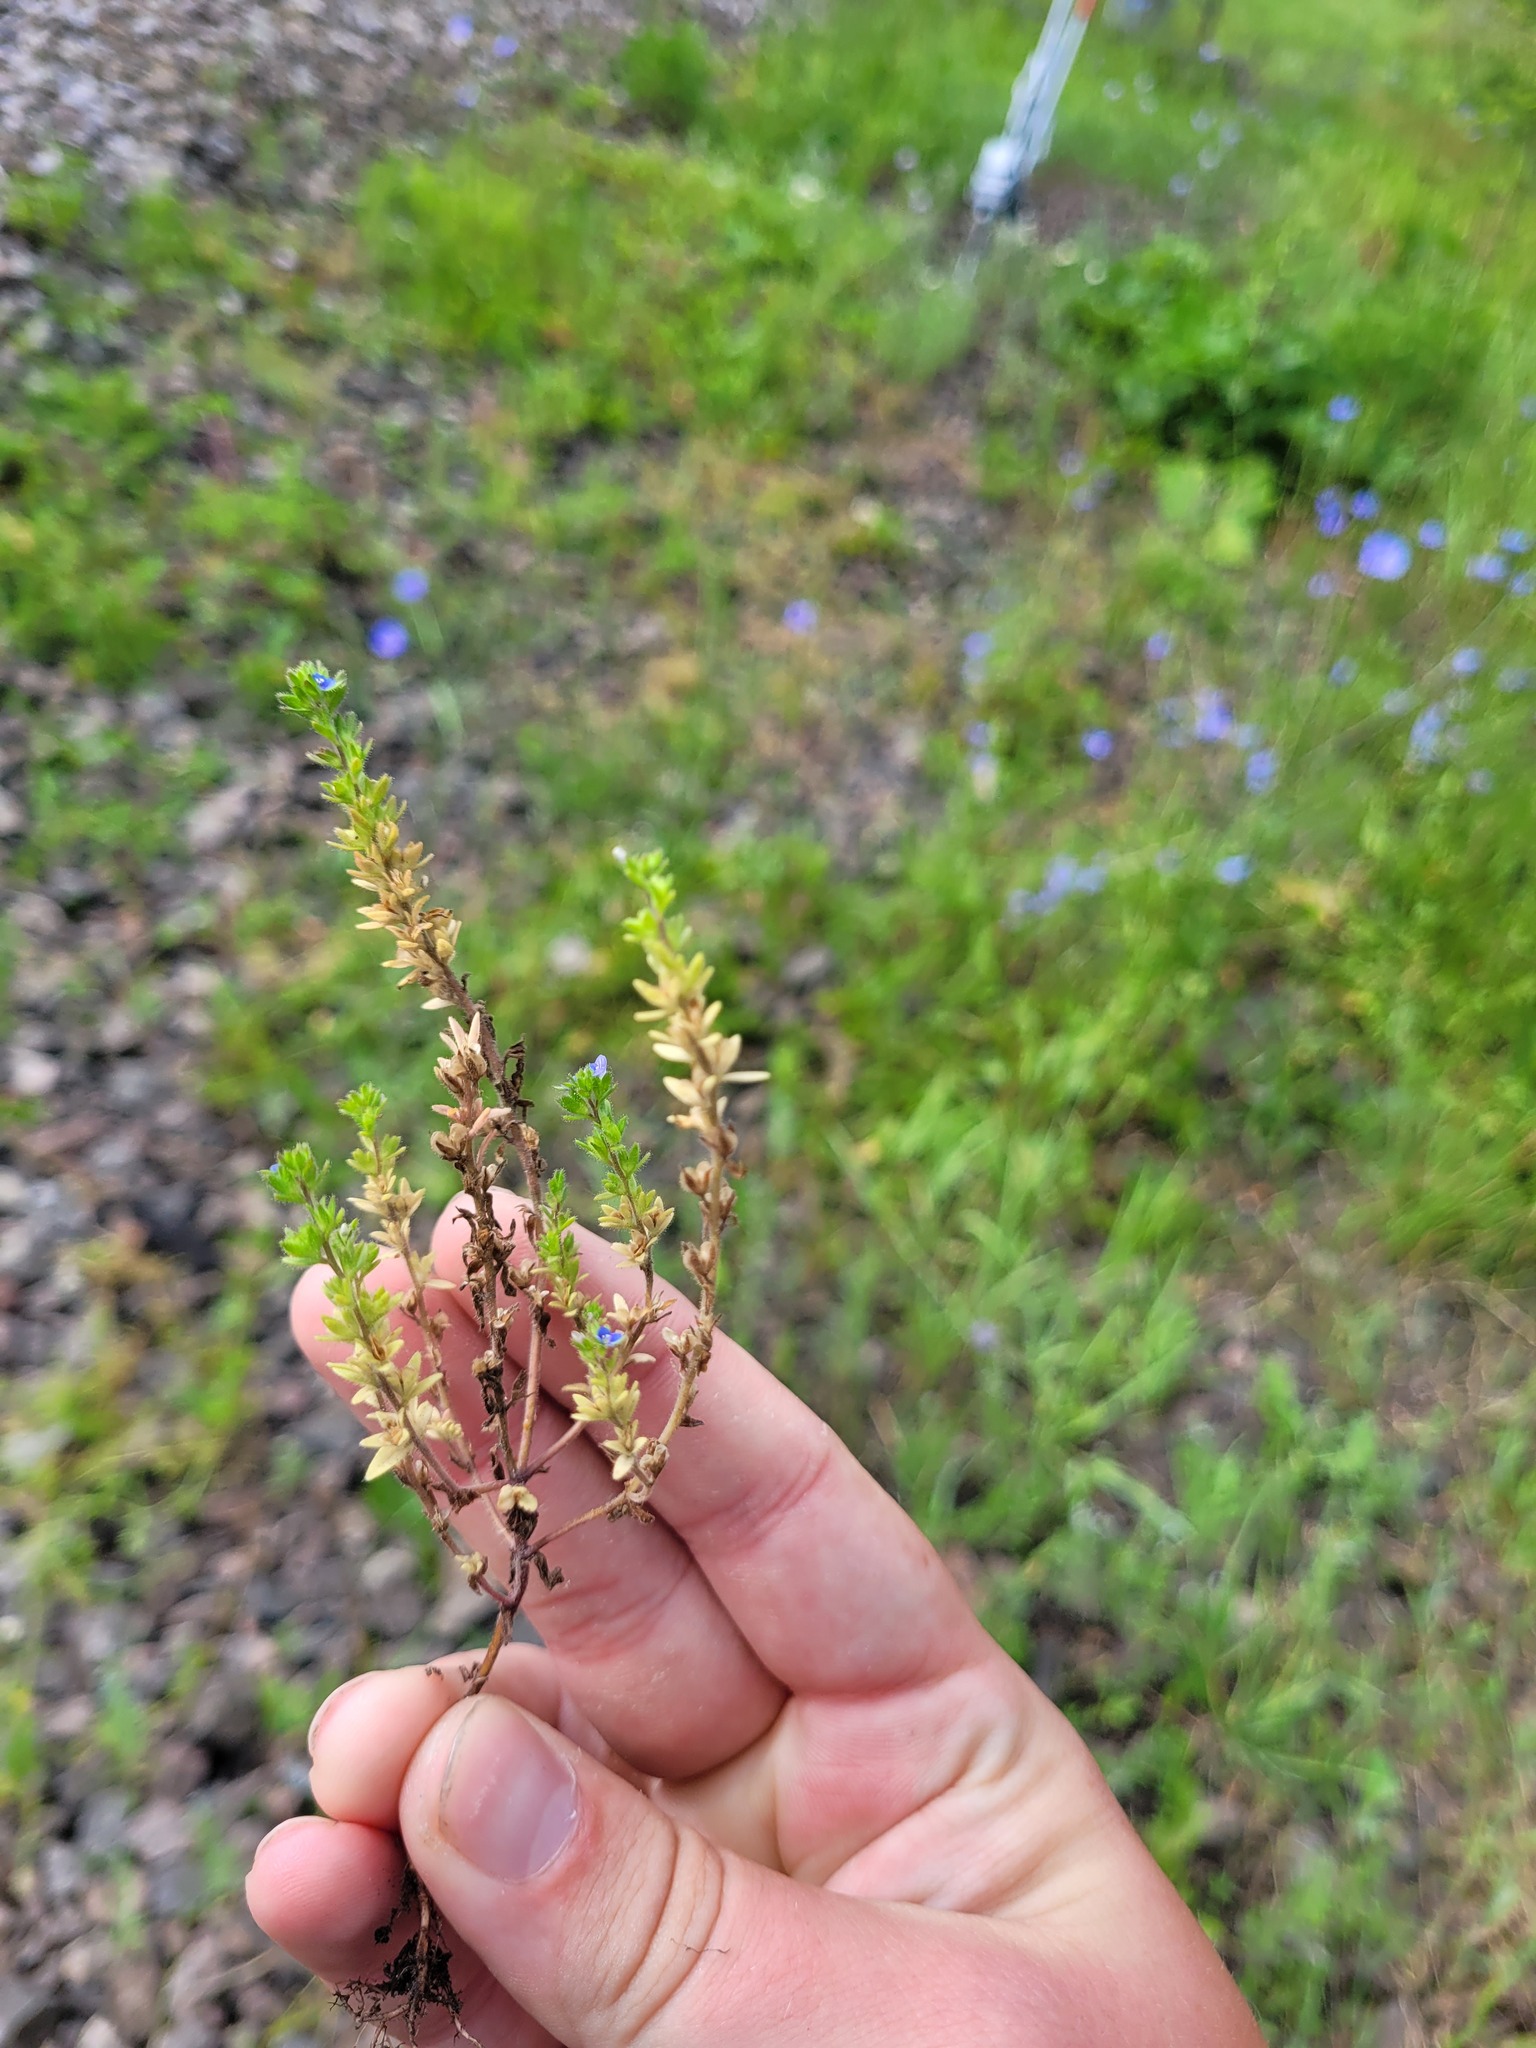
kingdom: Plantae
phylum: Tracheophyta
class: Magnoliopsida
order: Lamiales
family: Plantaginaceae
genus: Veronica
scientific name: Veronica arvensis
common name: Corn speedwell
